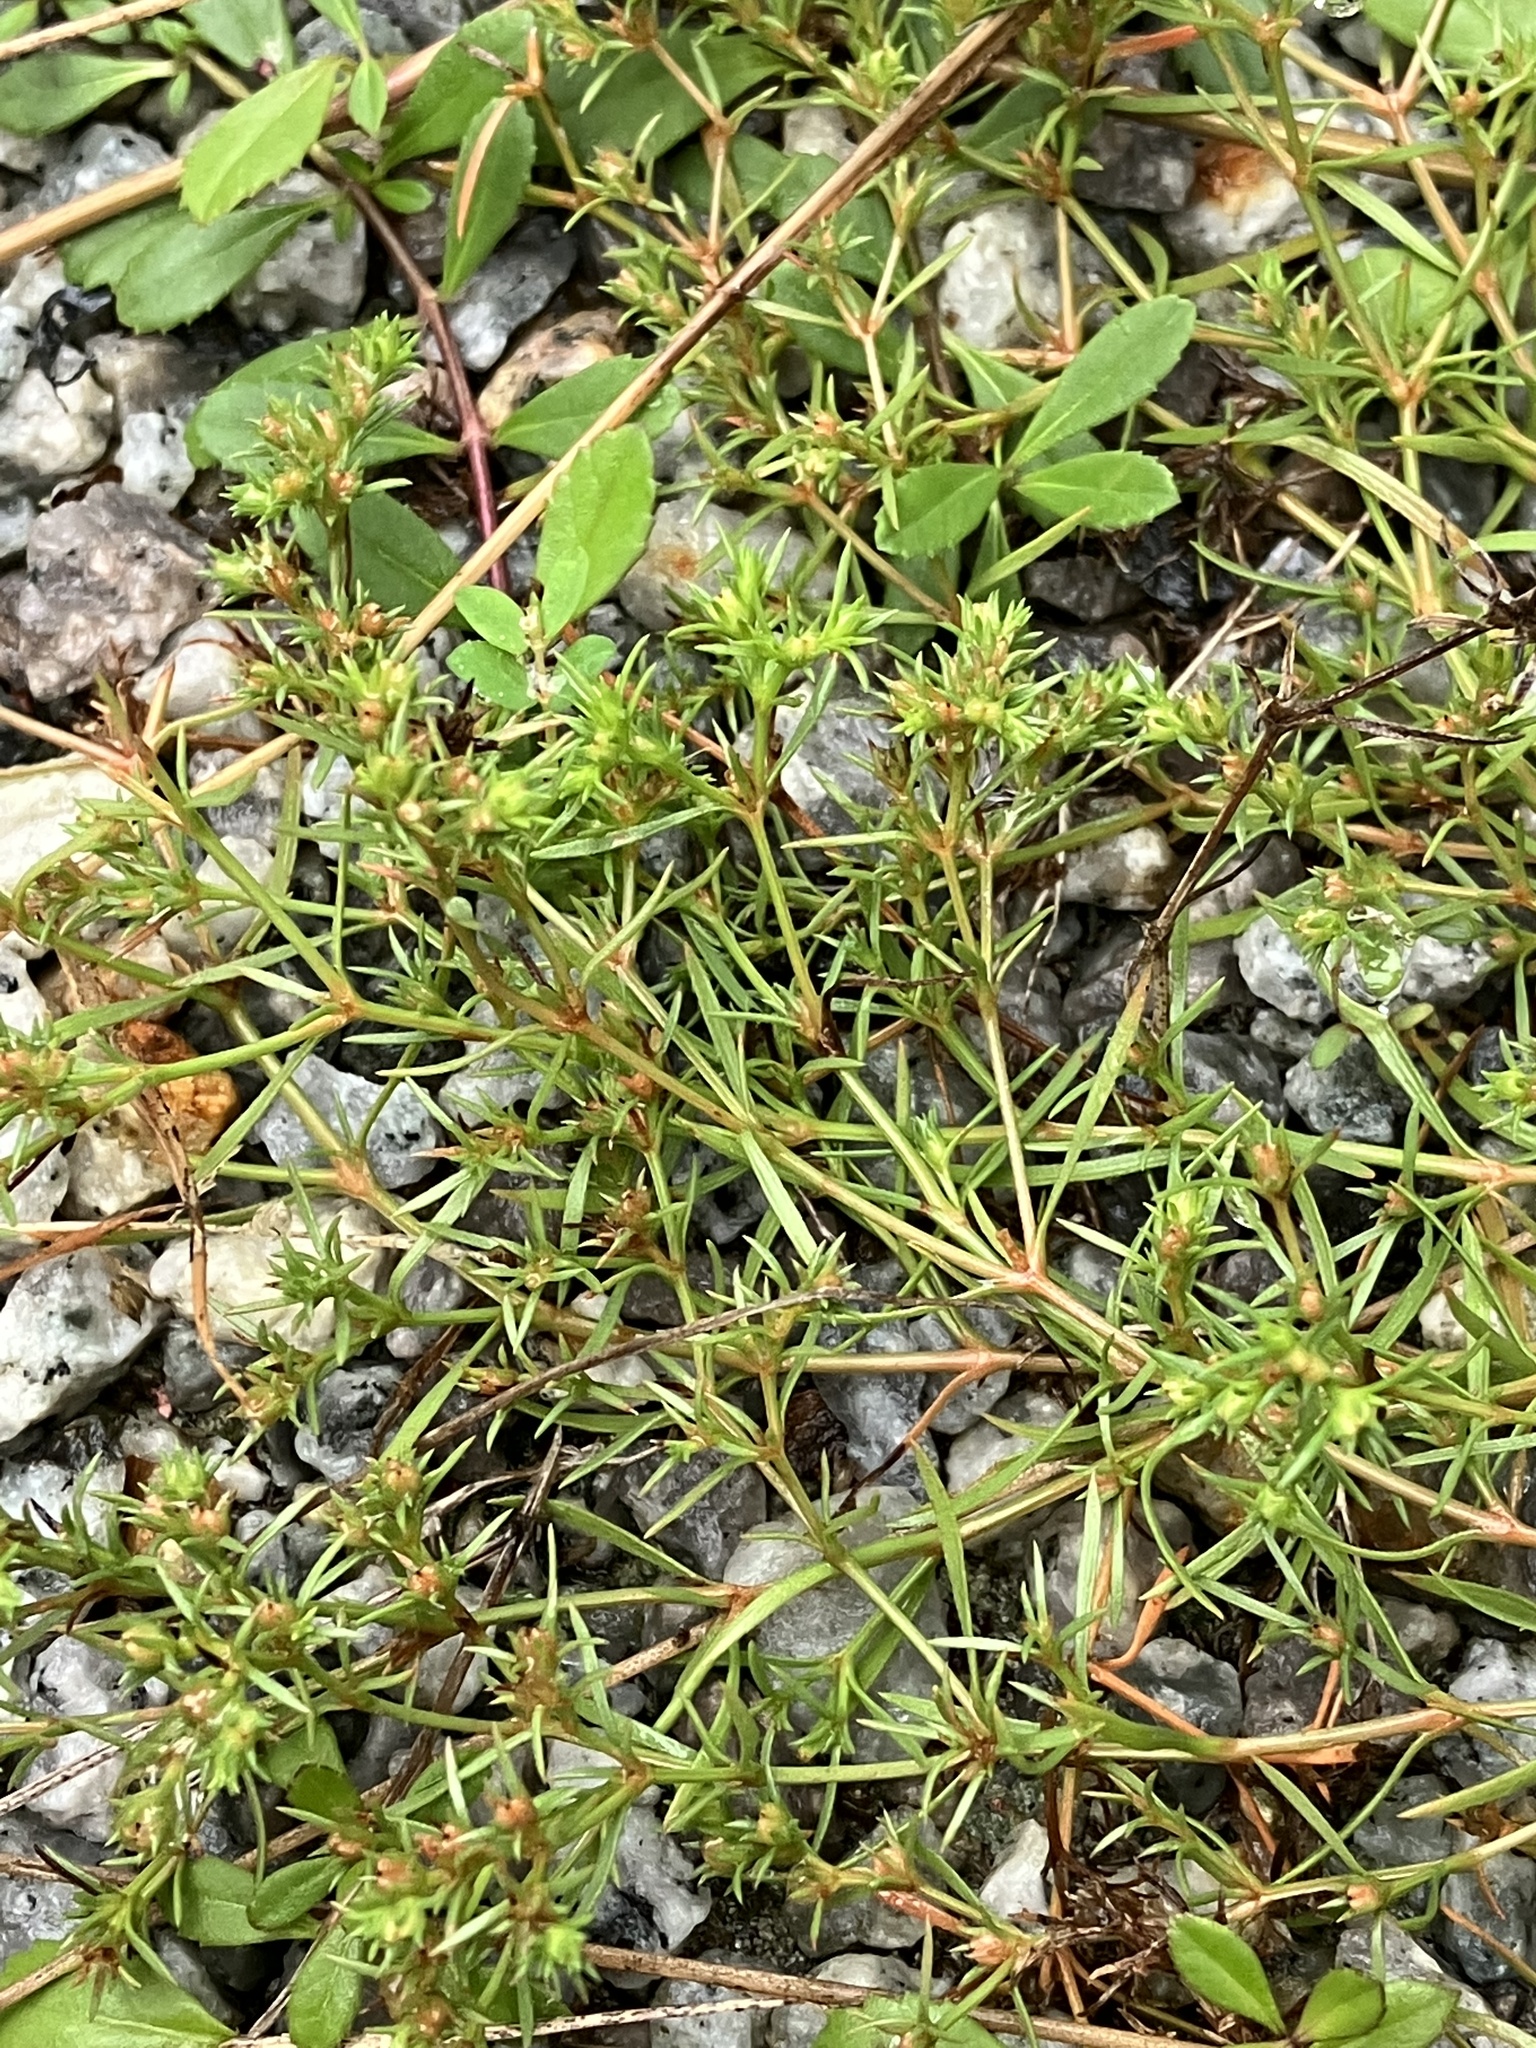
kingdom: Plantae
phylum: Tracheophyta
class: Magnoliopsida
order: Lamiales
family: Tetrachondraceae
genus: Polypremum
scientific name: Polypremum procumbens
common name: Juniper-leaf
